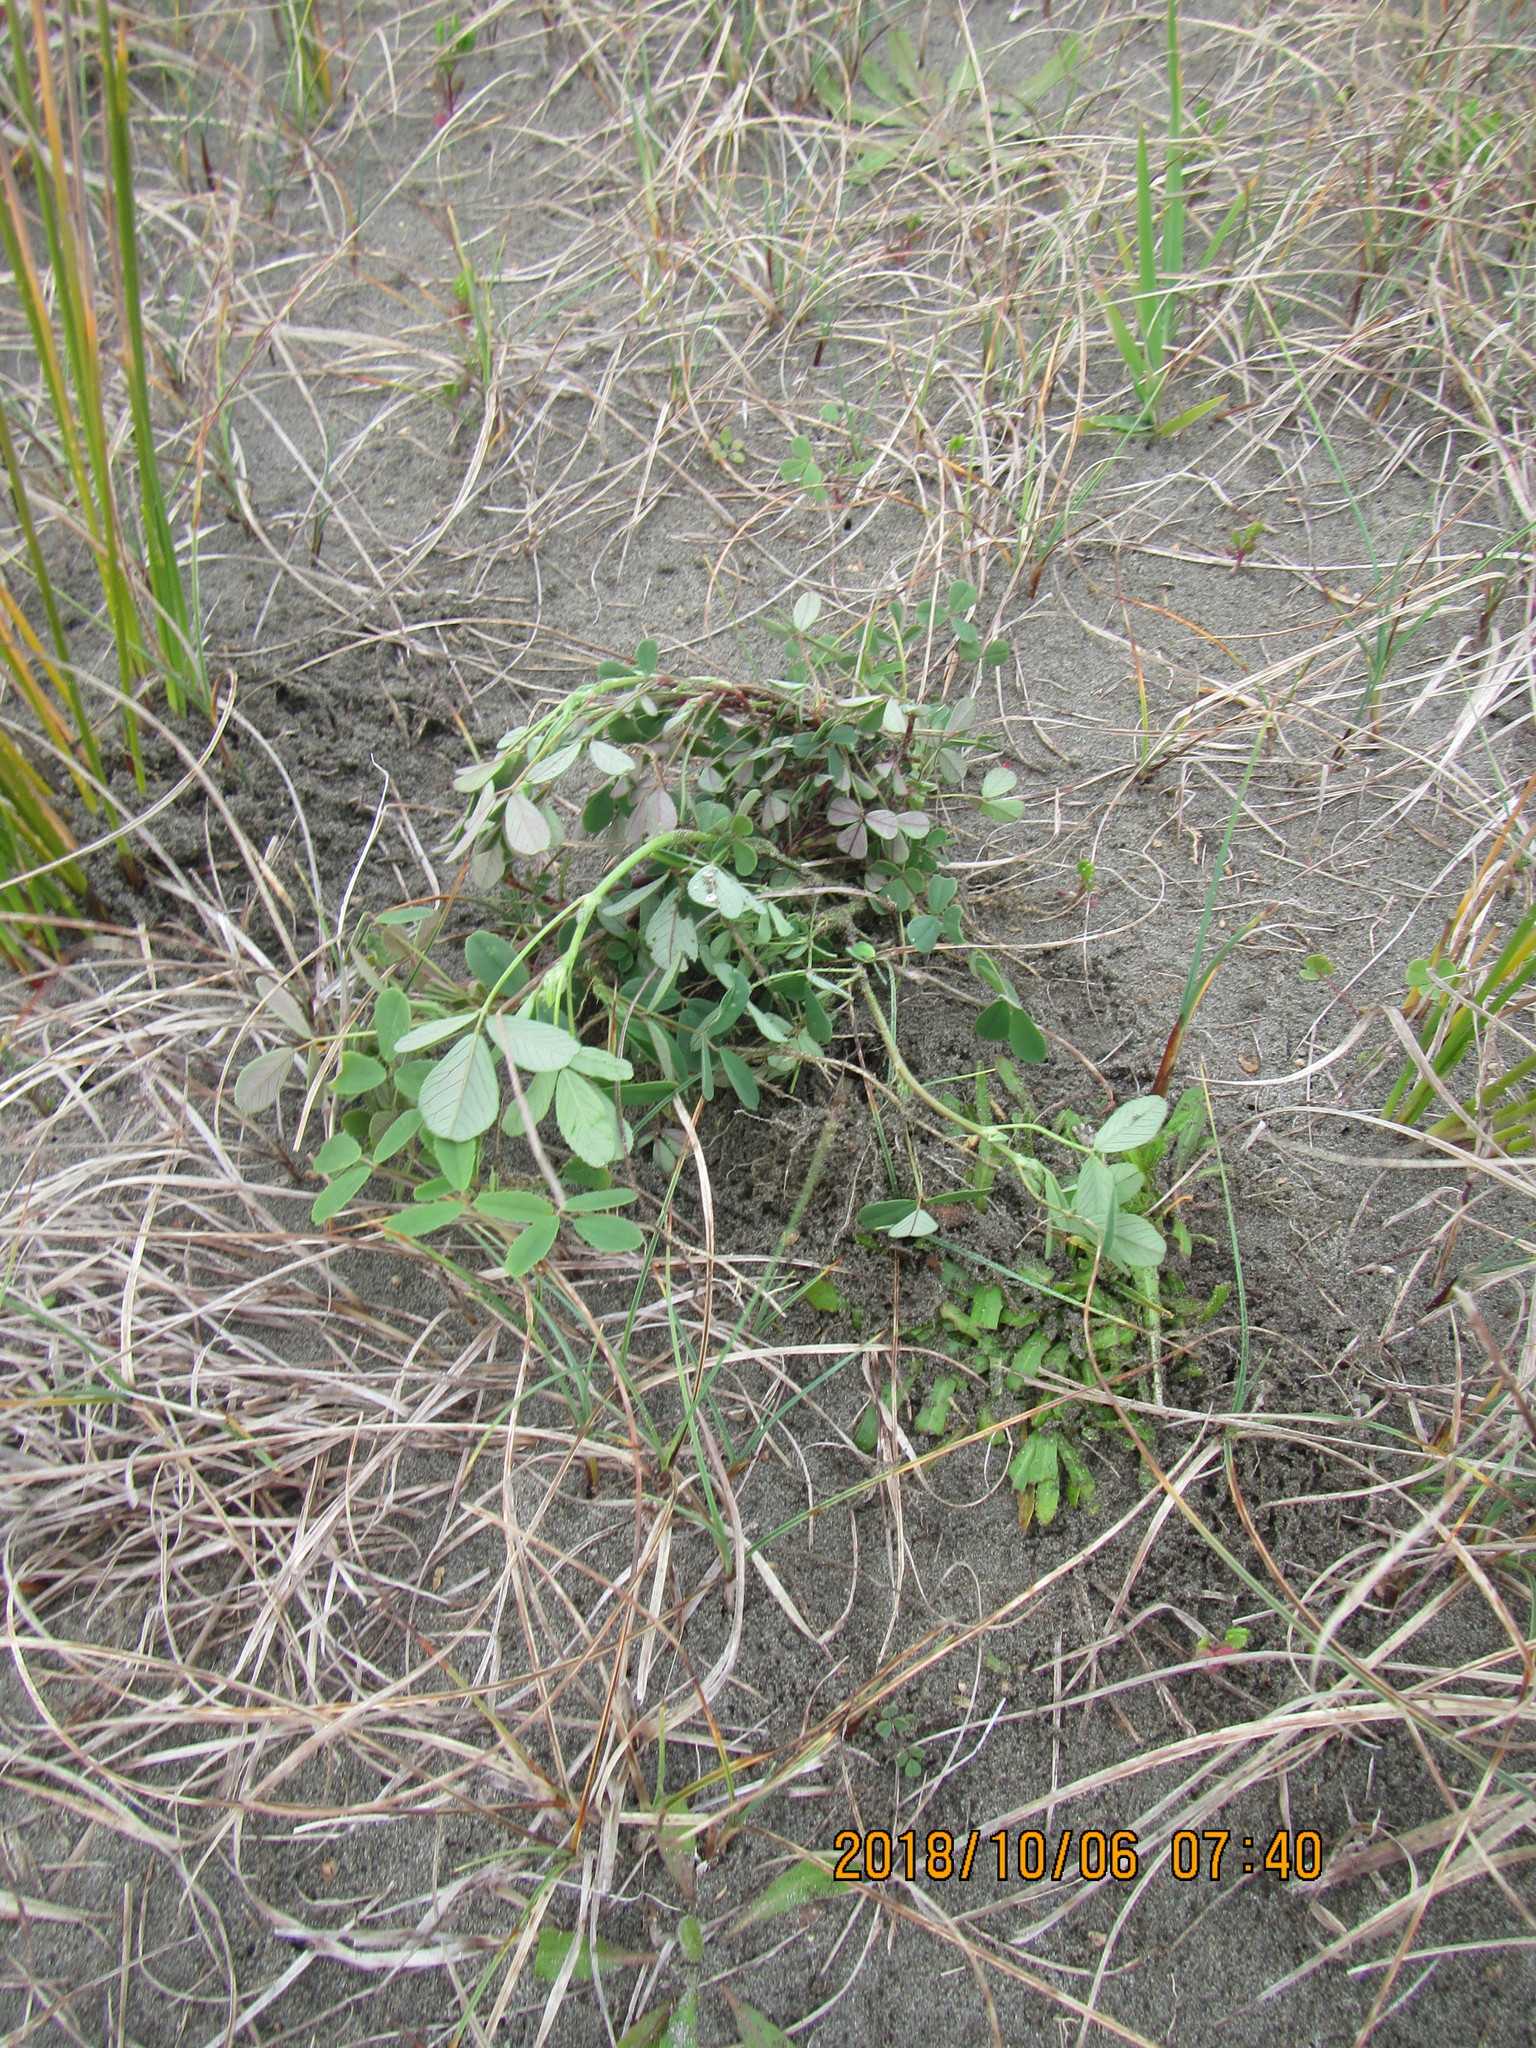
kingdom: Plantae
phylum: Tracheophyta
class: Magnoliopsida
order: Fabales
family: Fabaceae
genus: Melilotus
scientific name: Melilotus indicus
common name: Small melilot
